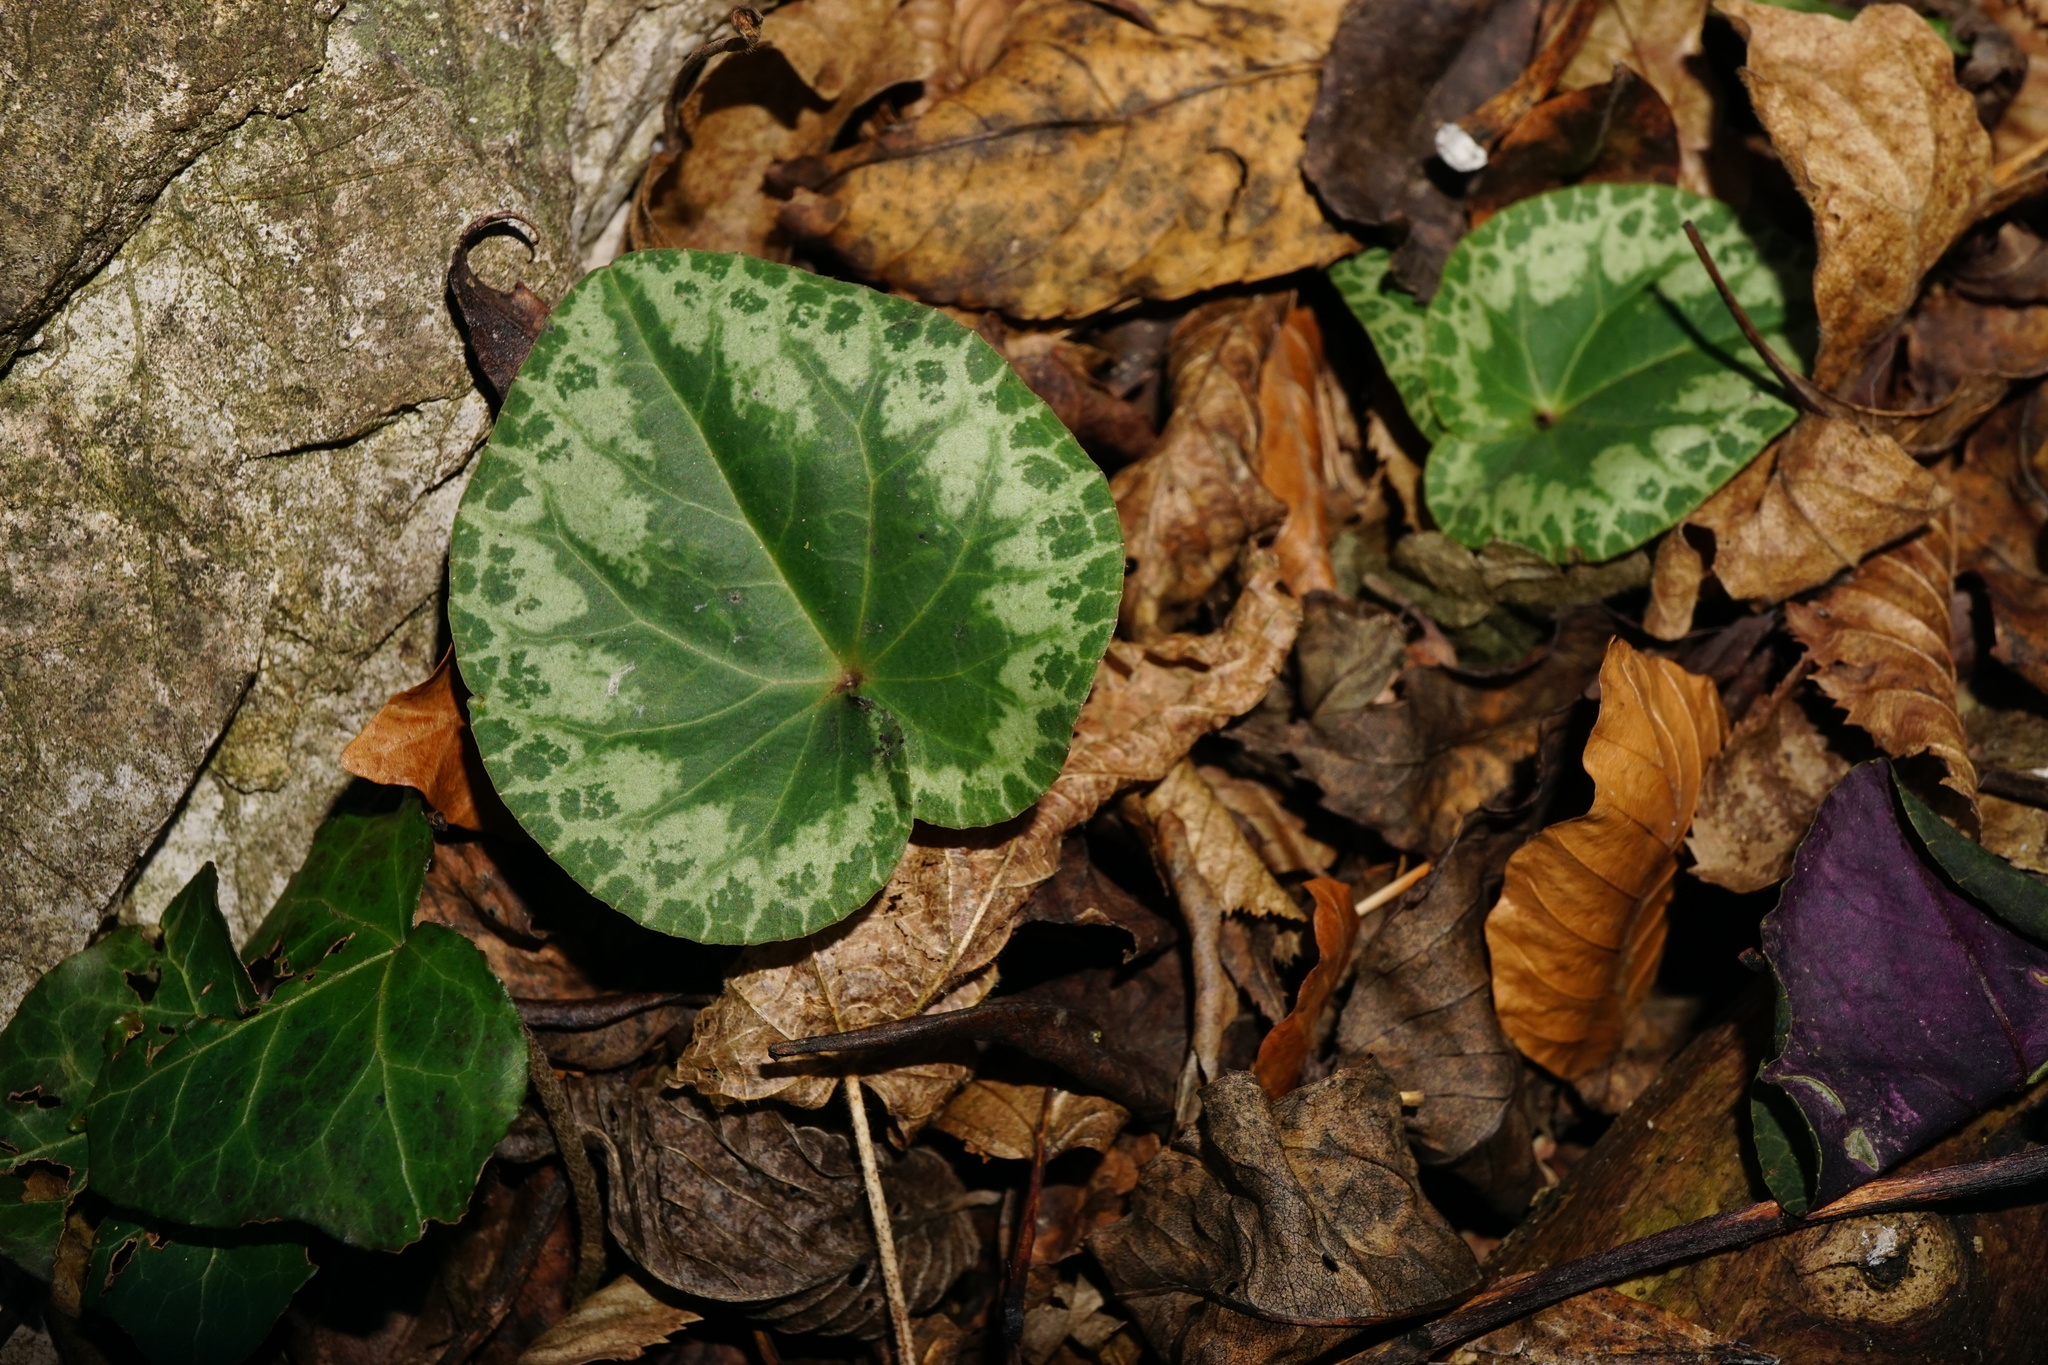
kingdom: Plantae
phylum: Tracheophyta
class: Magnoliopsida
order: Ericales
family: Primulaceae
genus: Cyclamen
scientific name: Cyclamen purpurascens
